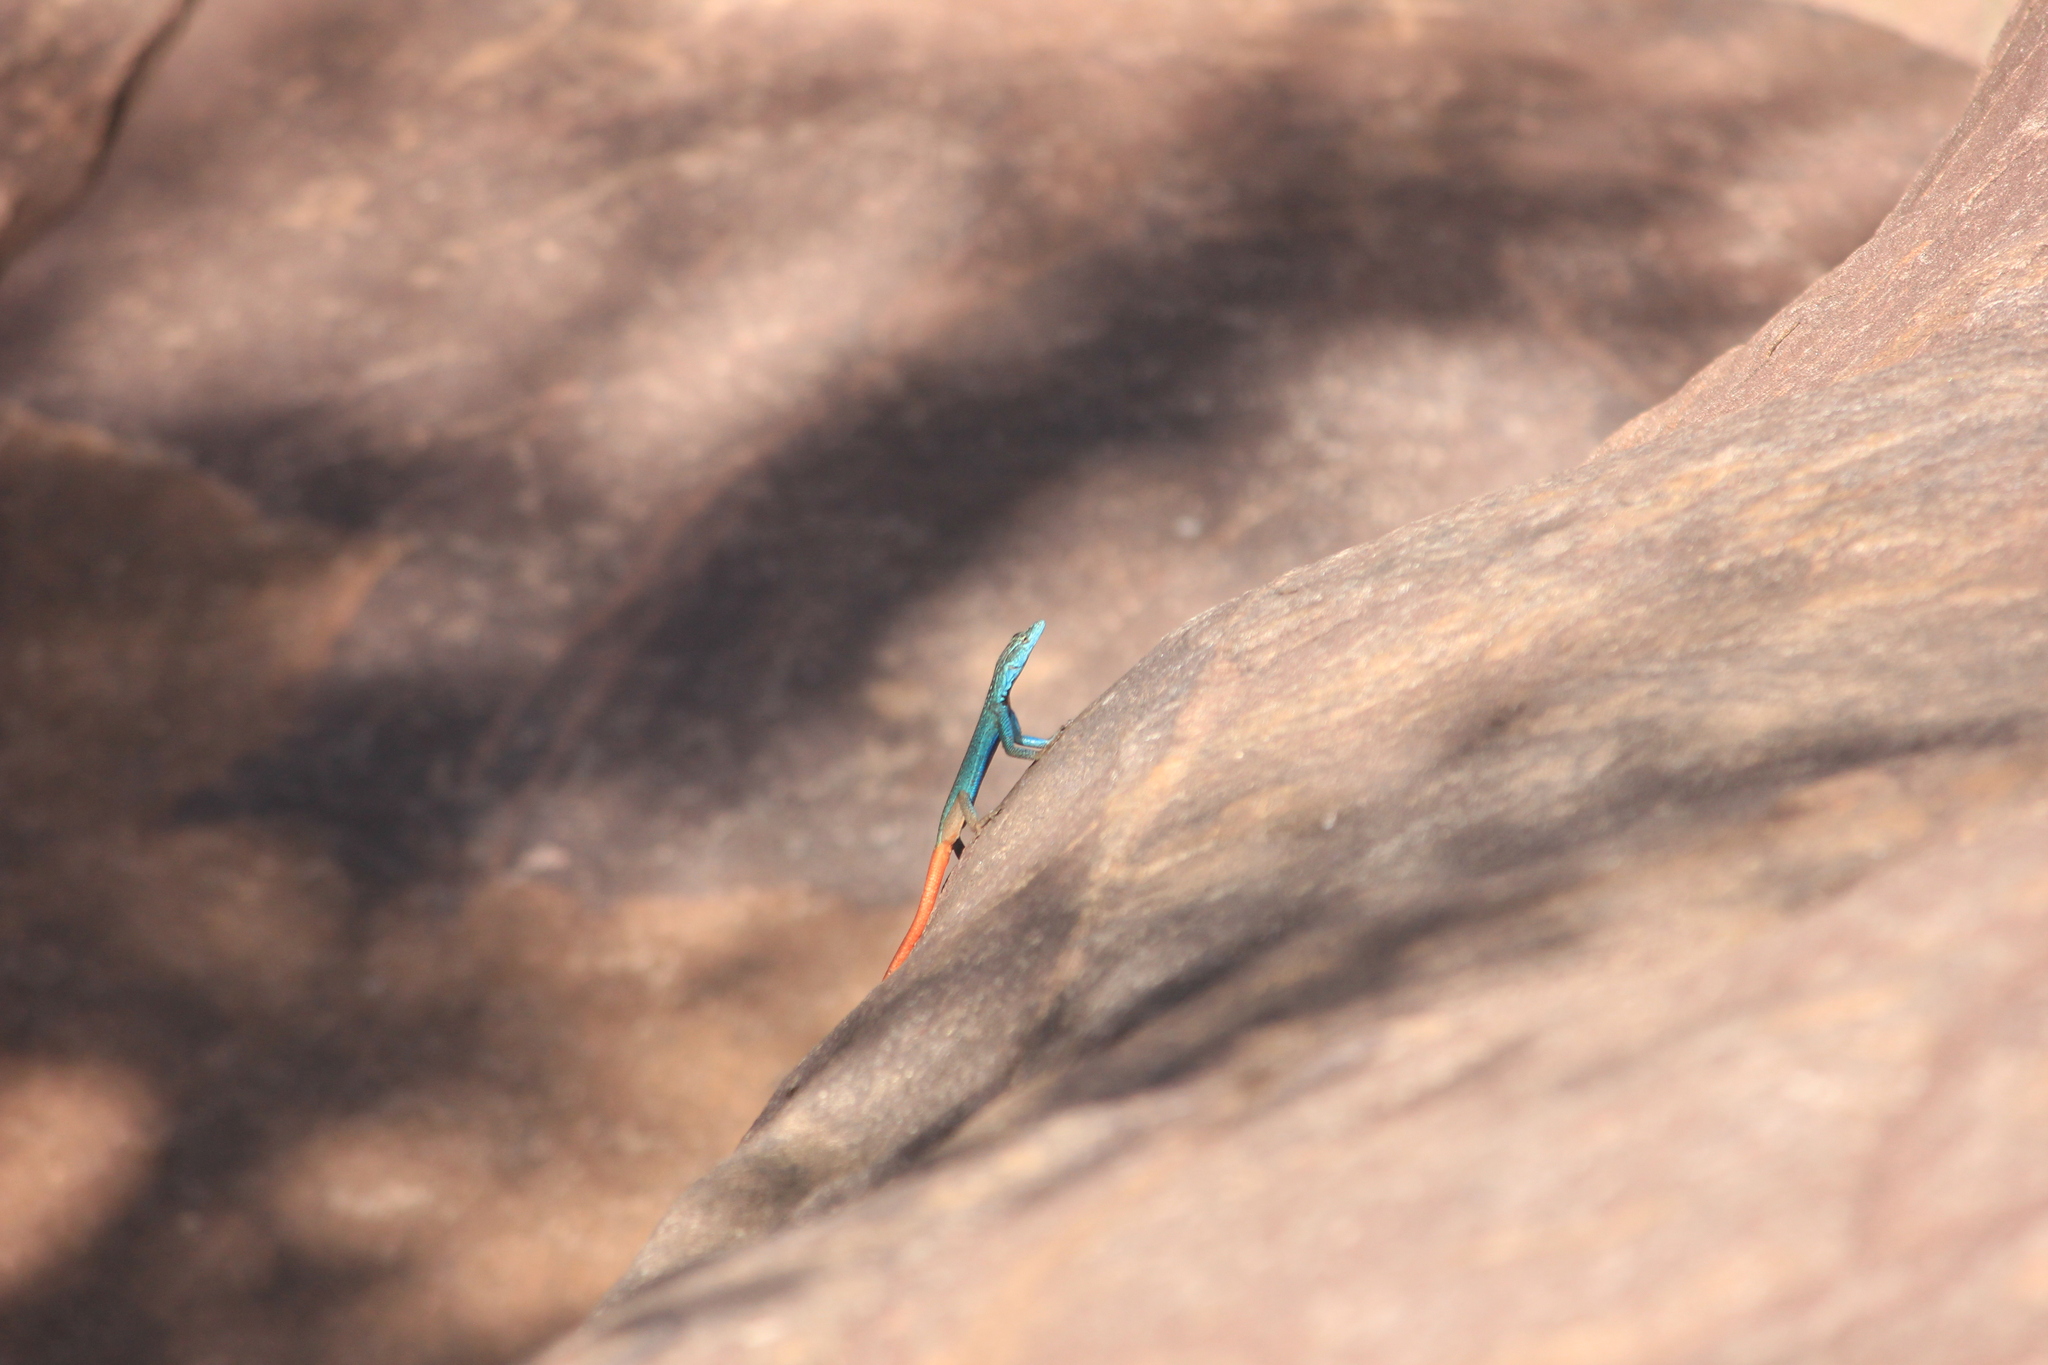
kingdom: Animalia
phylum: Chordata
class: Squamata
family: Cordylidae
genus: Platysaurus
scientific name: Platysaurus relictus
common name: Soutpansberg flat lizard
